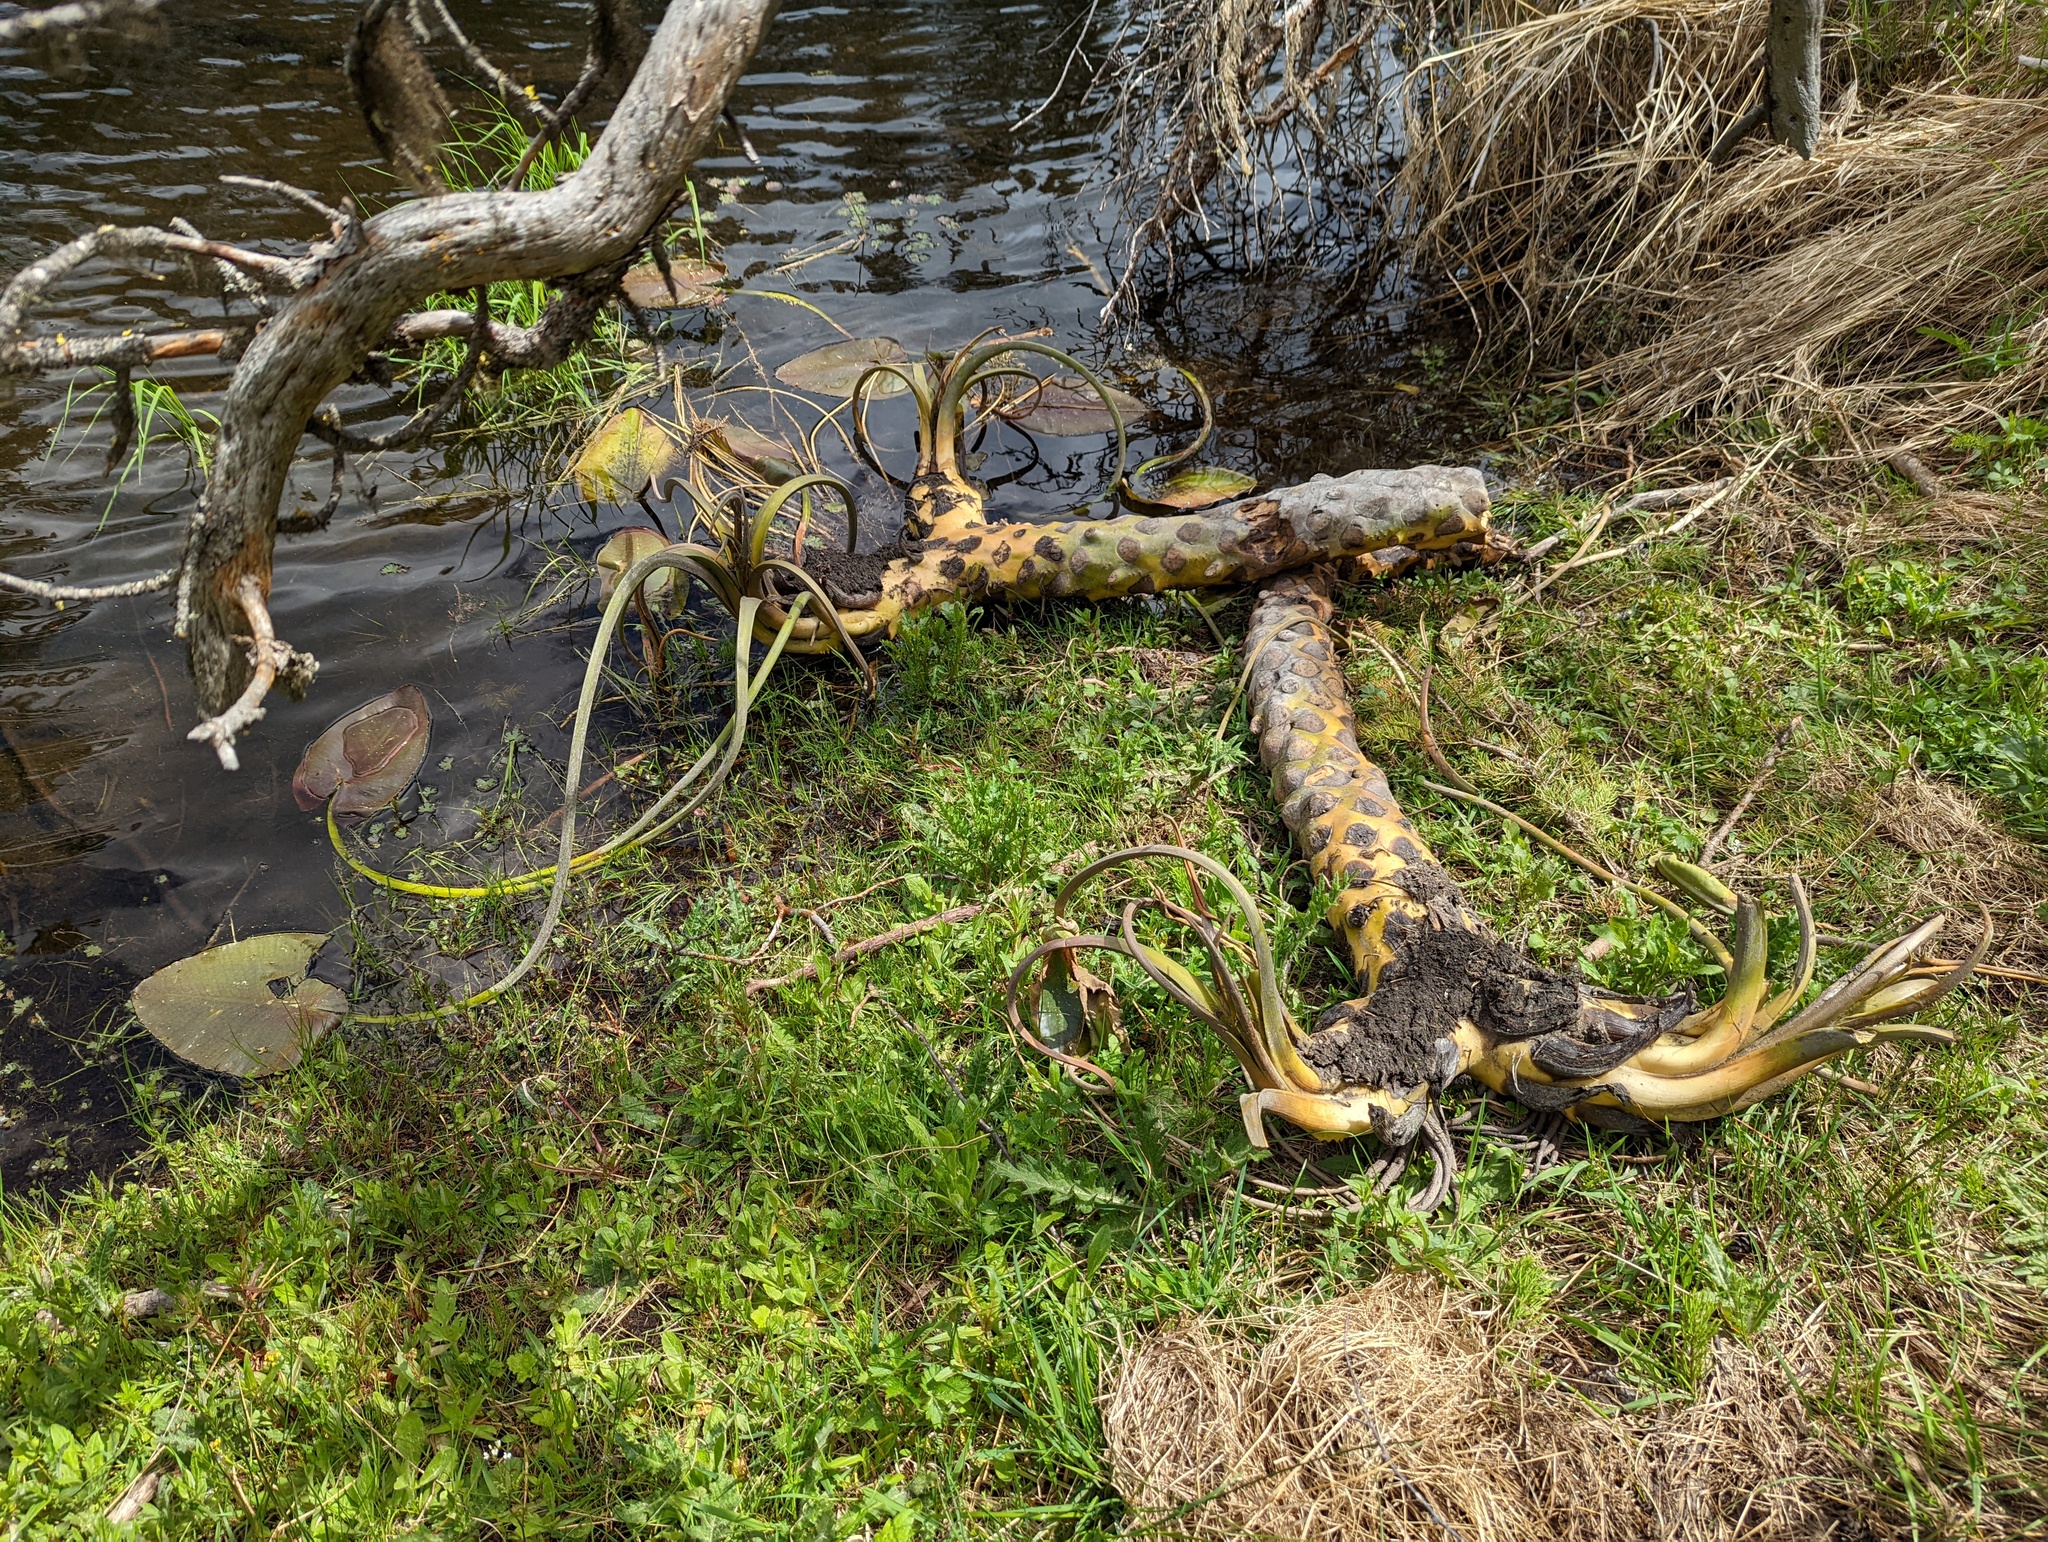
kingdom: Plantae
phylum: Tracheophyta
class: Magnoliopsida
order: Nymphaeales
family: Nymphaeaceae
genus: Nuphar
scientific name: Nuphar polysepala
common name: Rocky mountain cow-lily
